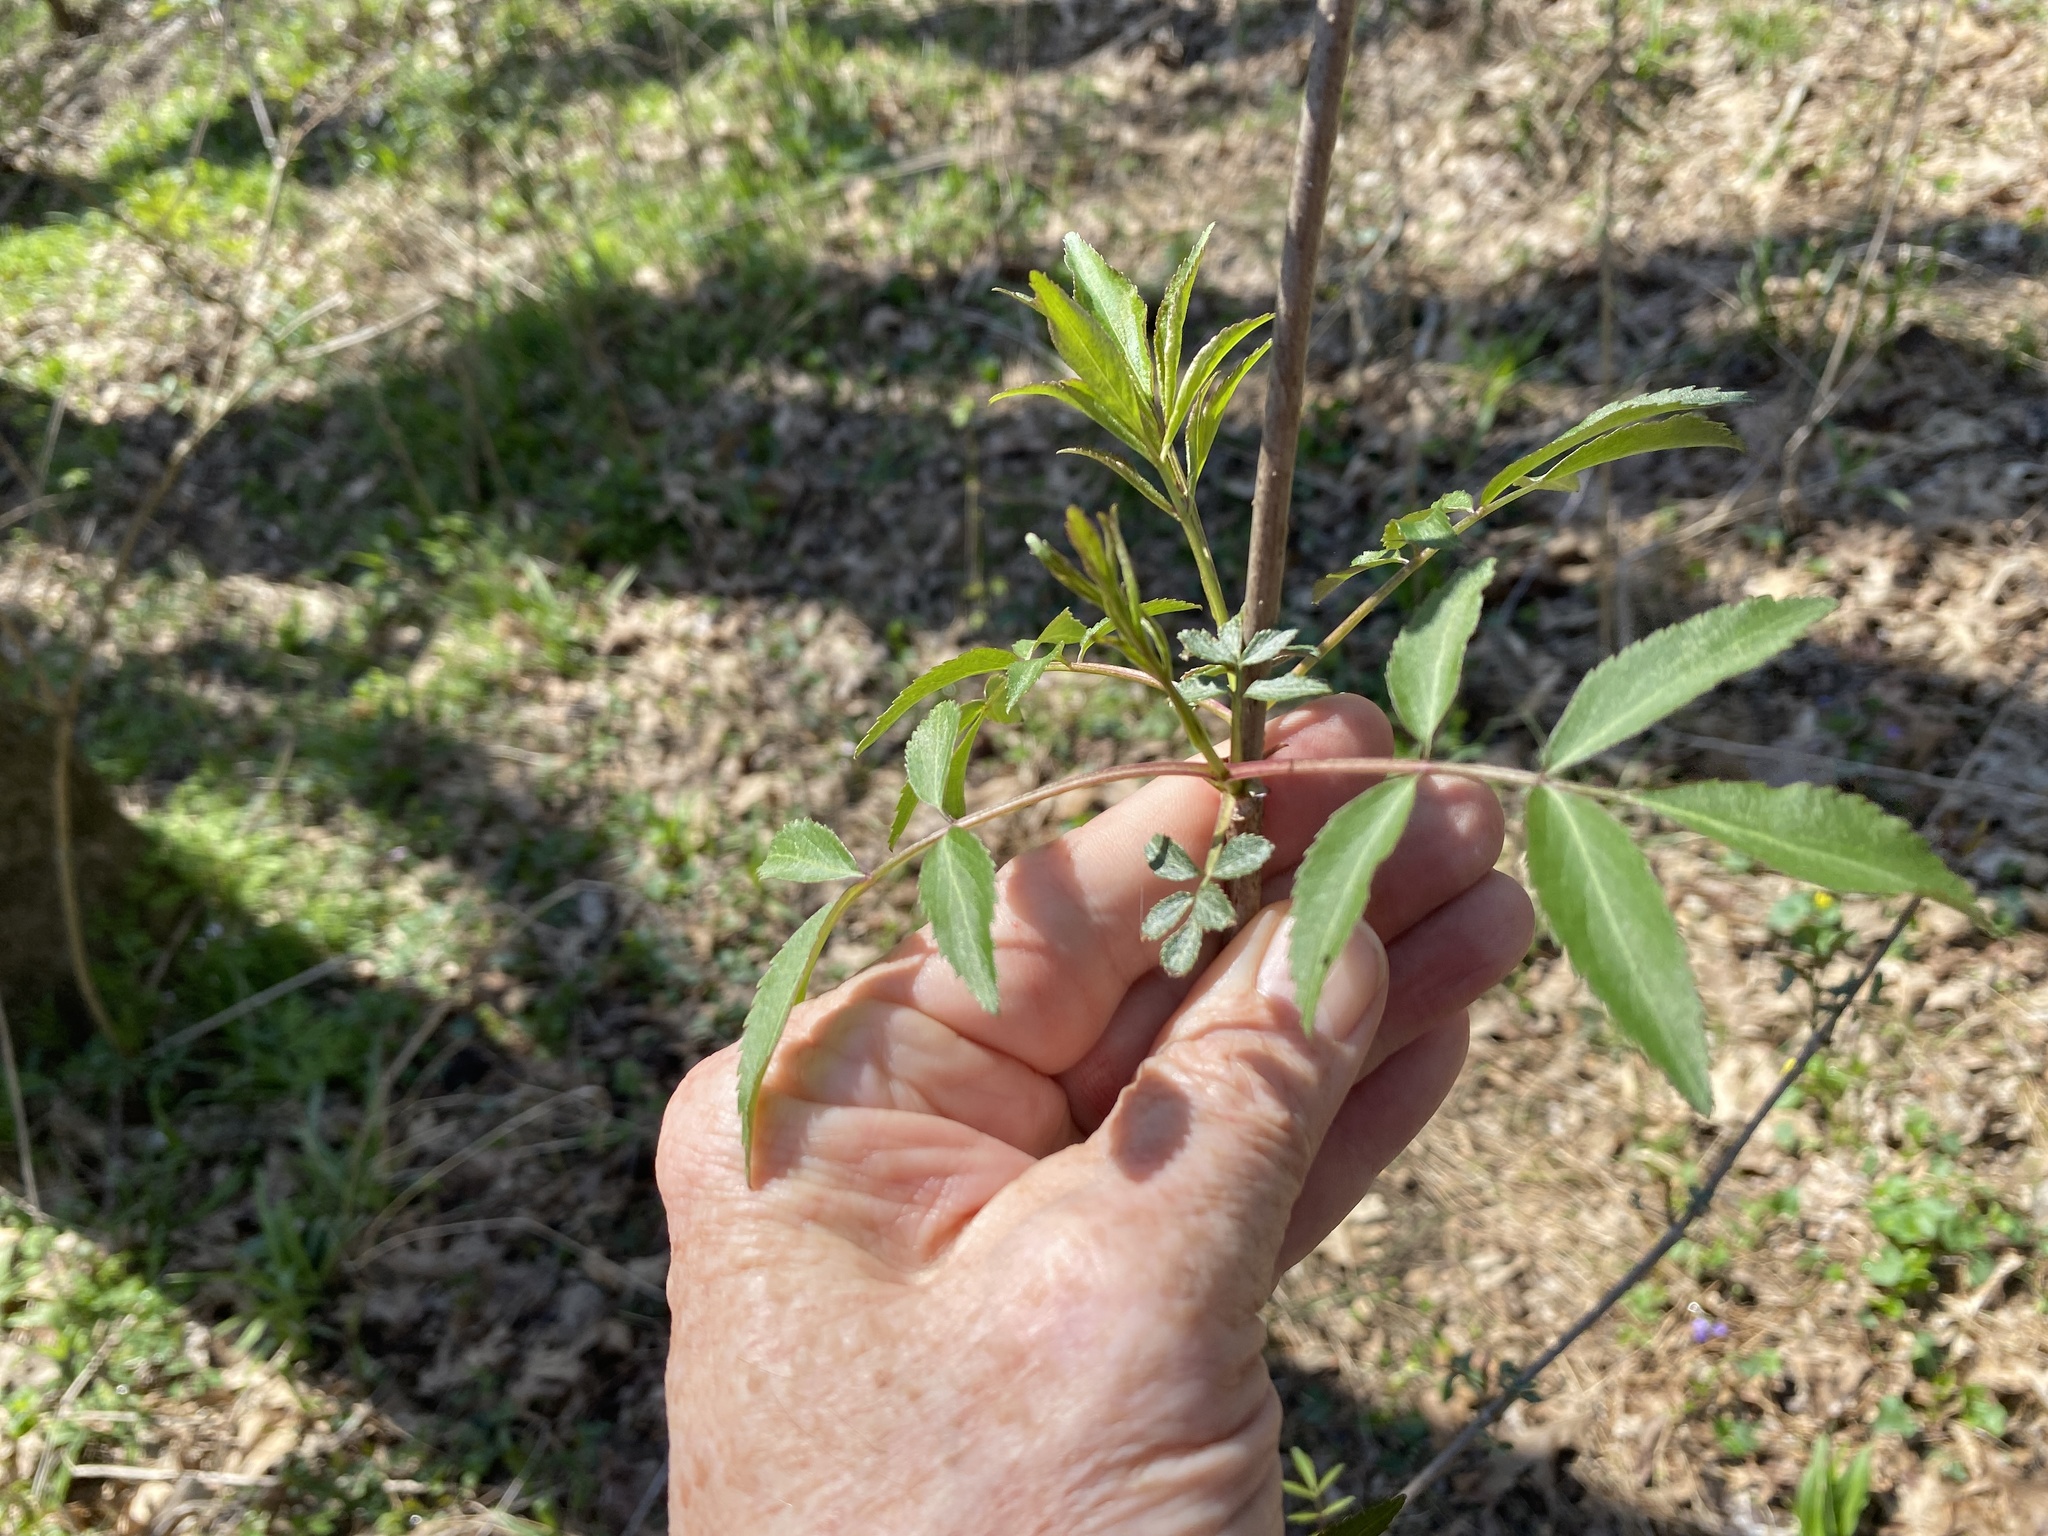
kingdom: Plantae
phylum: Tracheophyta
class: Magnoliopsida
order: Dipsacales
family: Viburnaceae
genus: Sambucus
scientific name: Sambucus canadensis
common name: American elder
